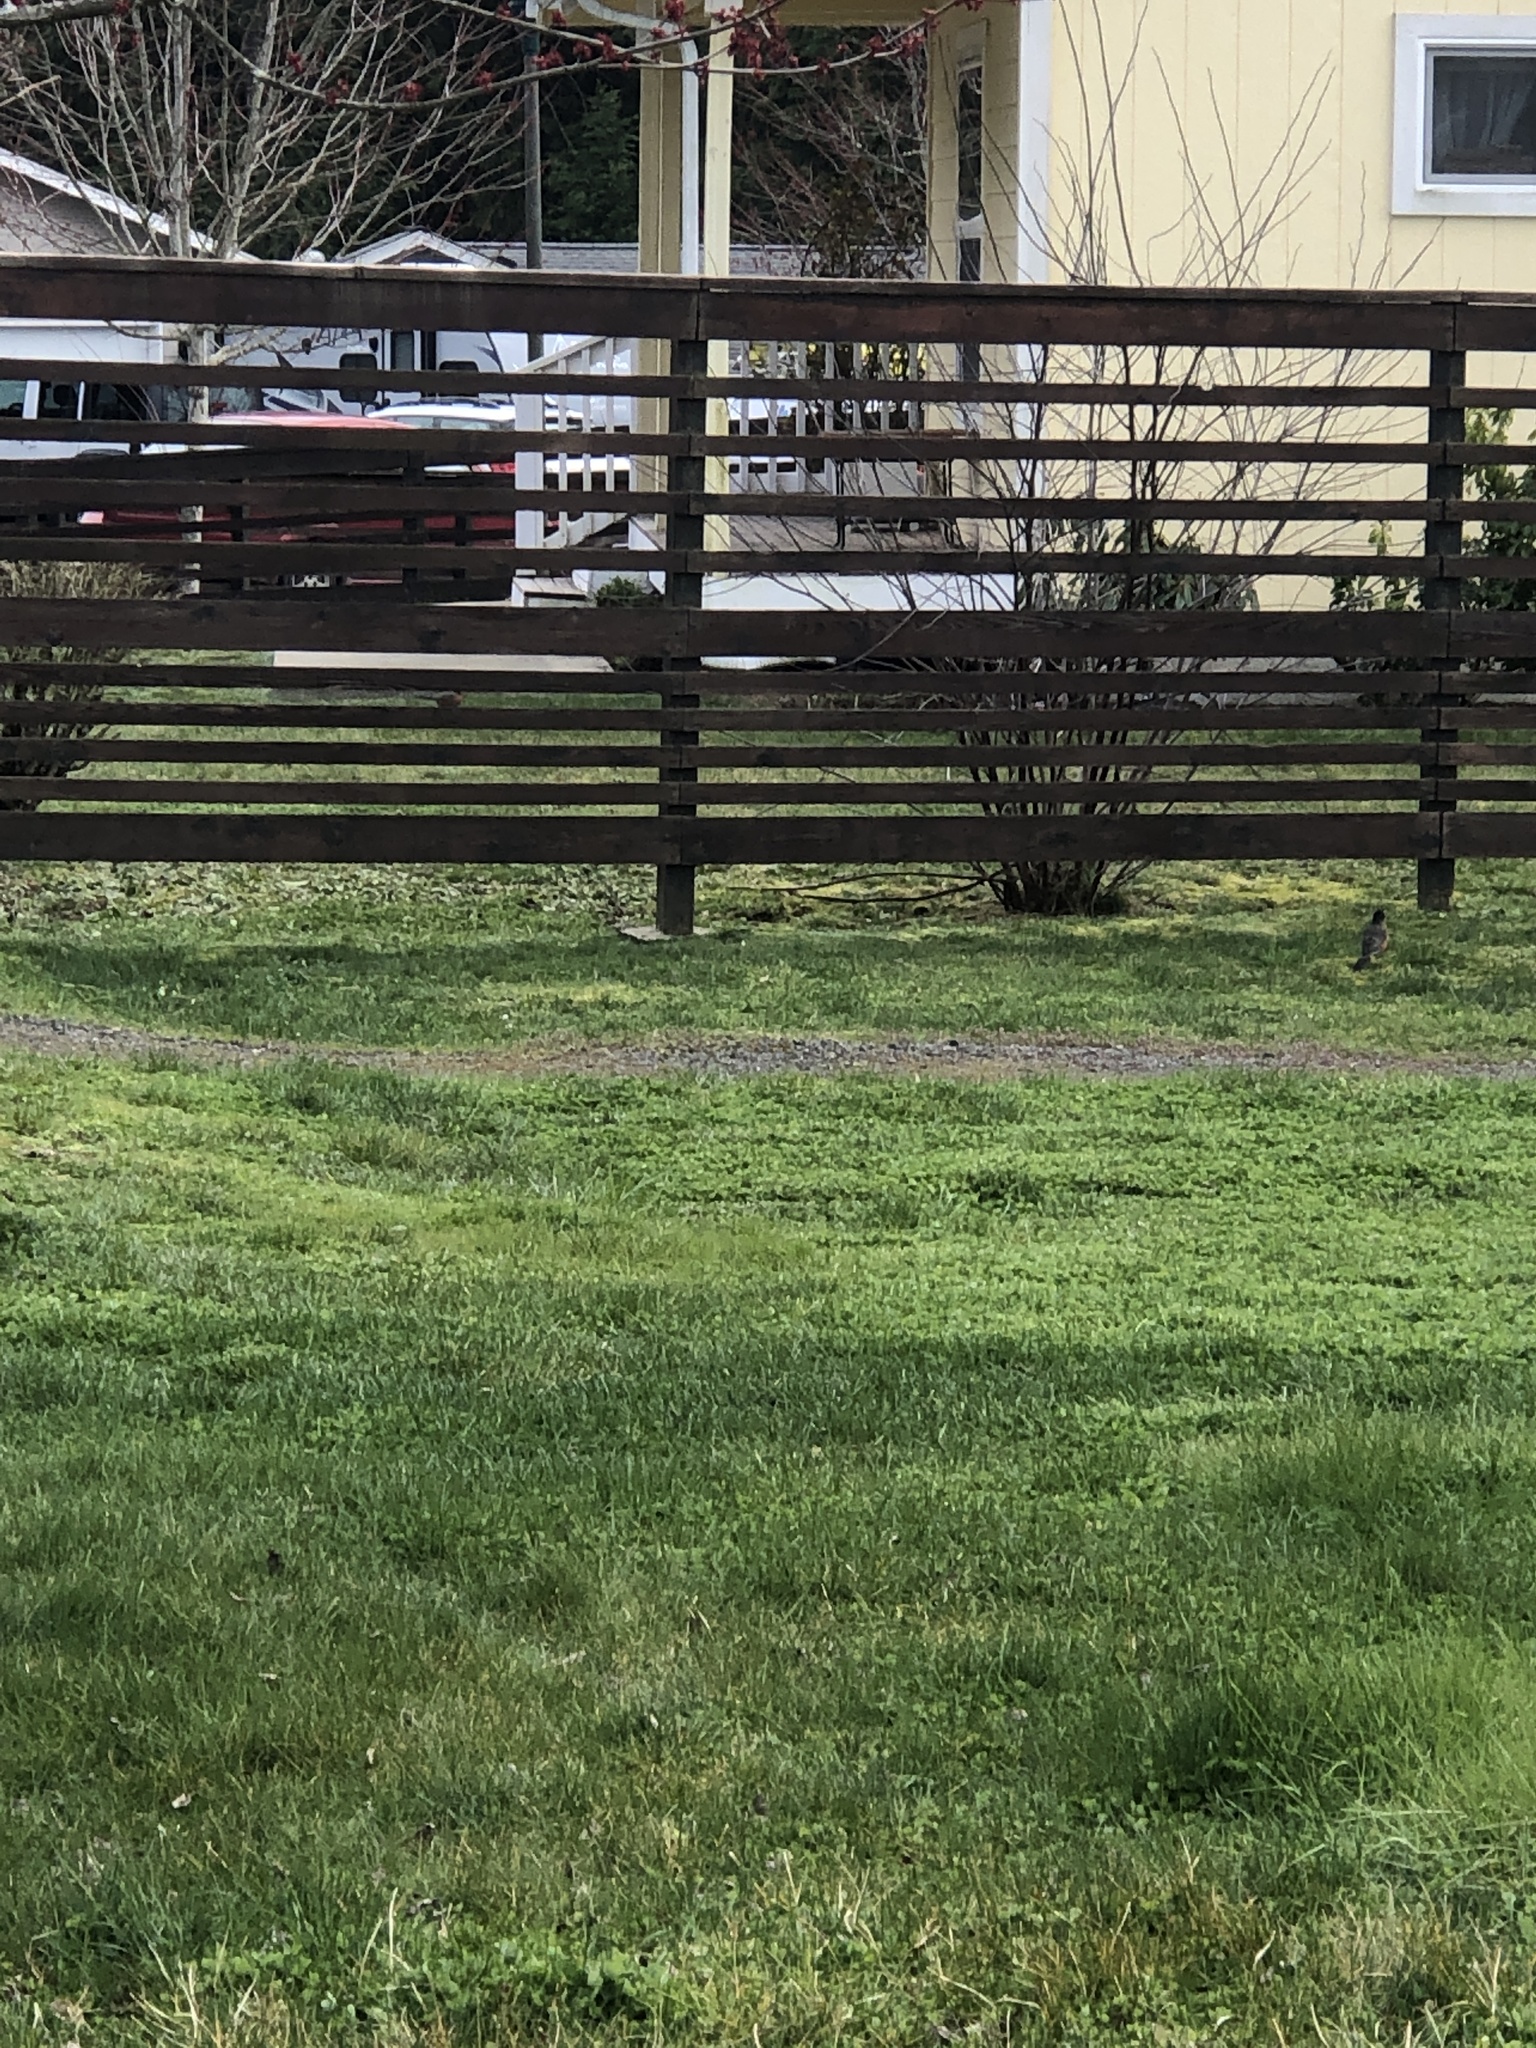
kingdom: Animalia
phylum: Chordata
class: Aves
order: Passeriformes
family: Turdidae
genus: Turdus
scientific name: Turdus migratorius
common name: American robin
